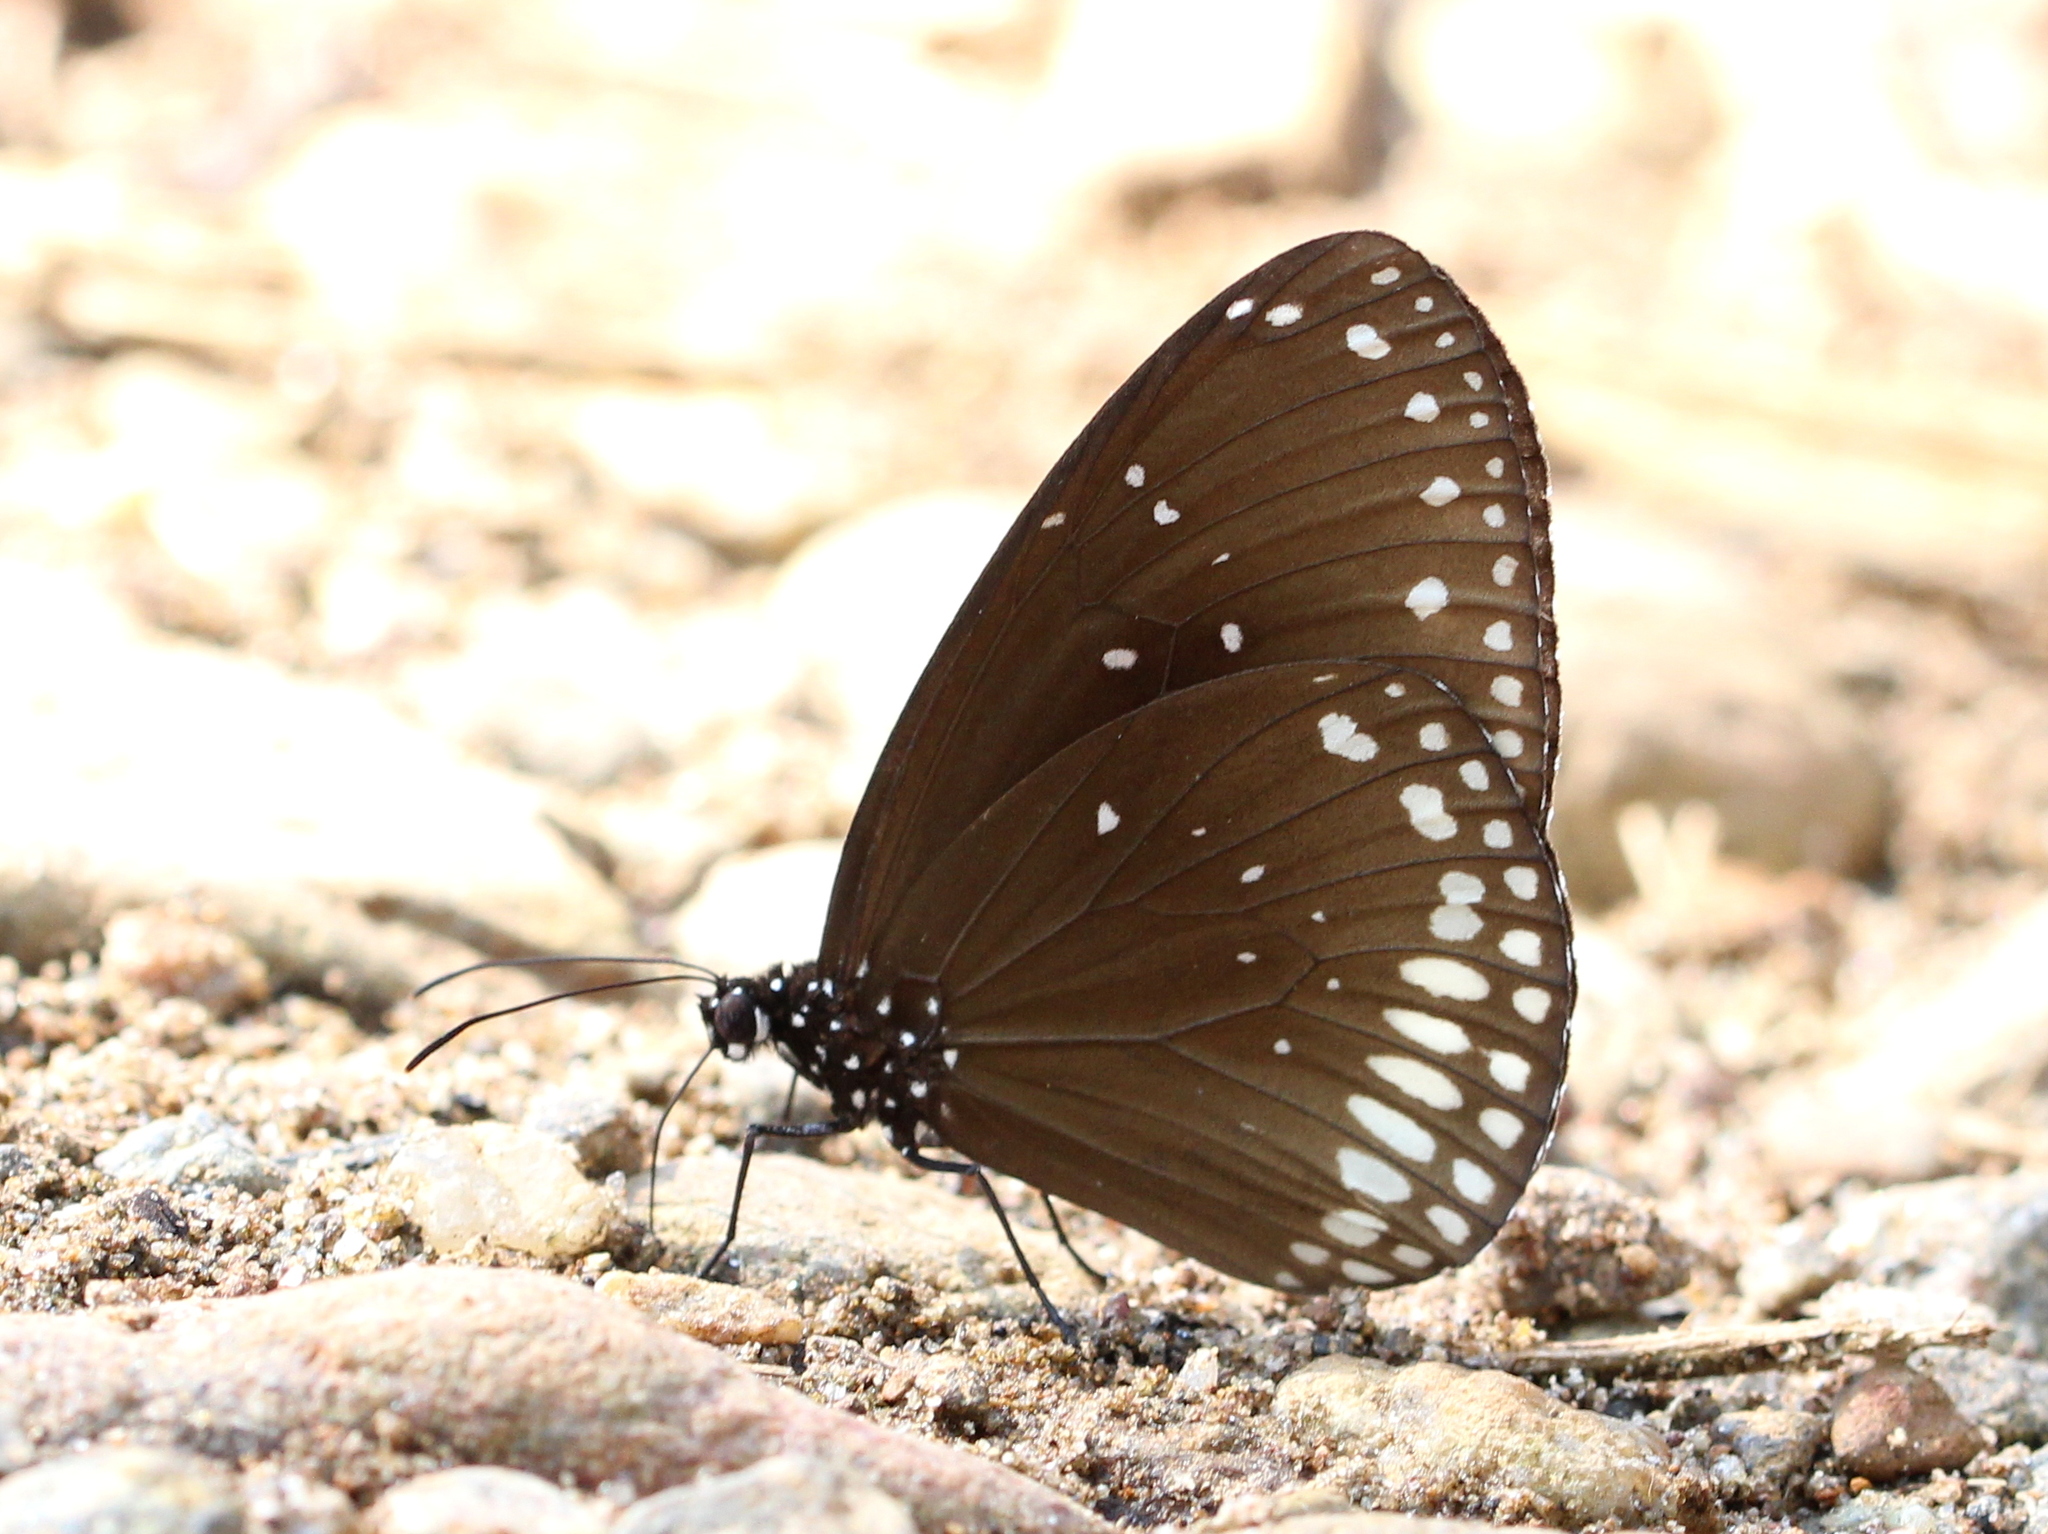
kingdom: Animalia
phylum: Arthropoda
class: Insecta
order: Lepidoptera
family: Nymphalidae
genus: Euploea
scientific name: Euploea sylvester
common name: Double-branded crow butterfly
